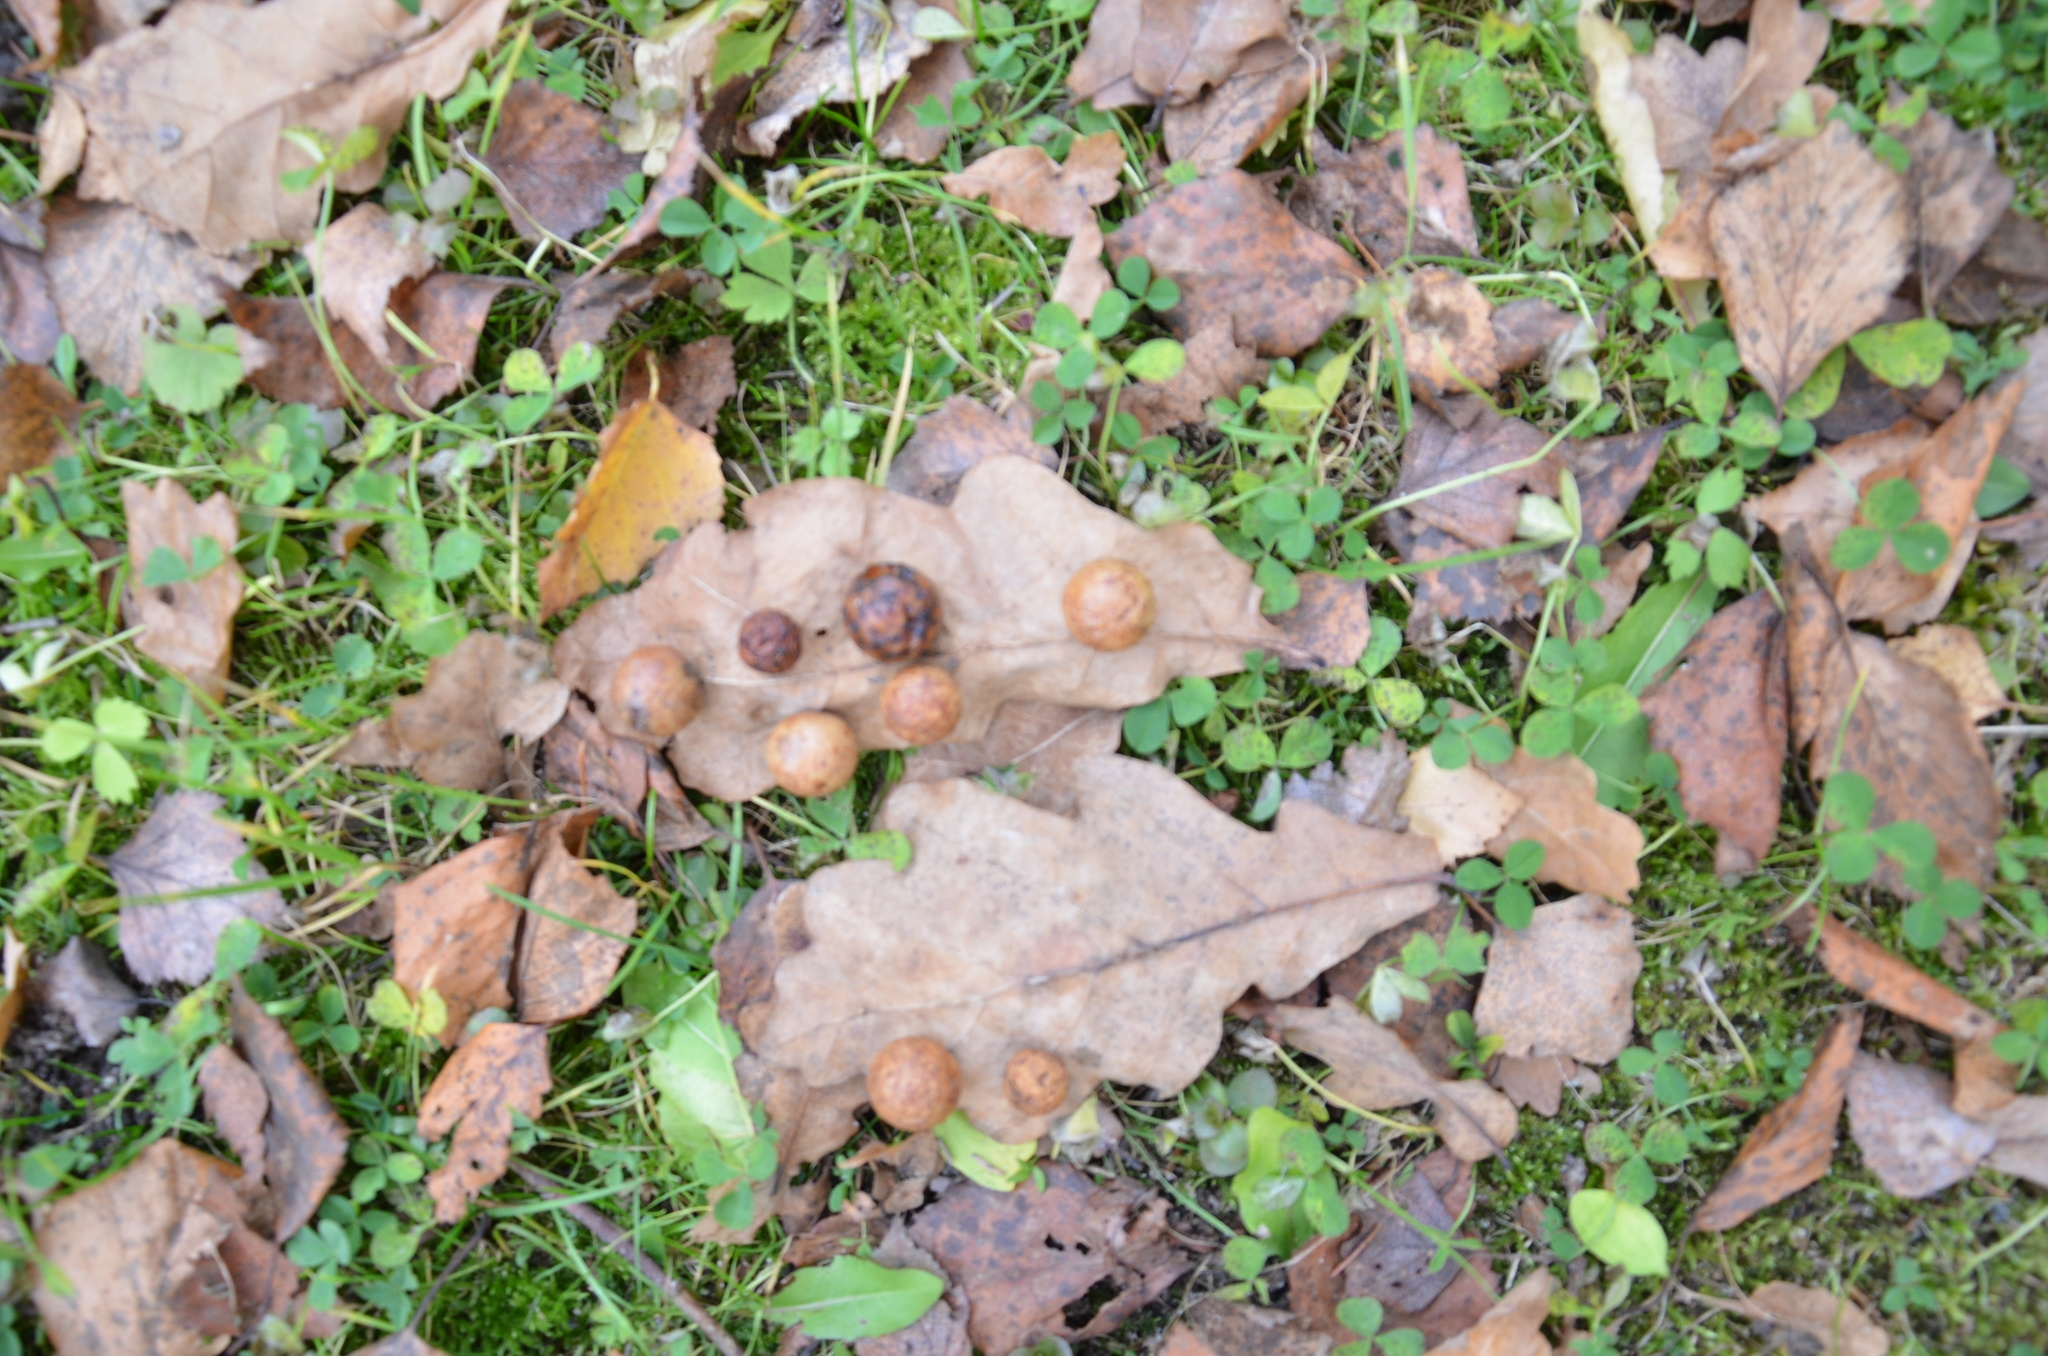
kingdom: Animalia
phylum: Arthropoda
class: Insecta
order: Hymenoptera
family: Cynipidae
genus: Cynips
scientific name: Cynips quercusfolii
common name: Cherry gall
